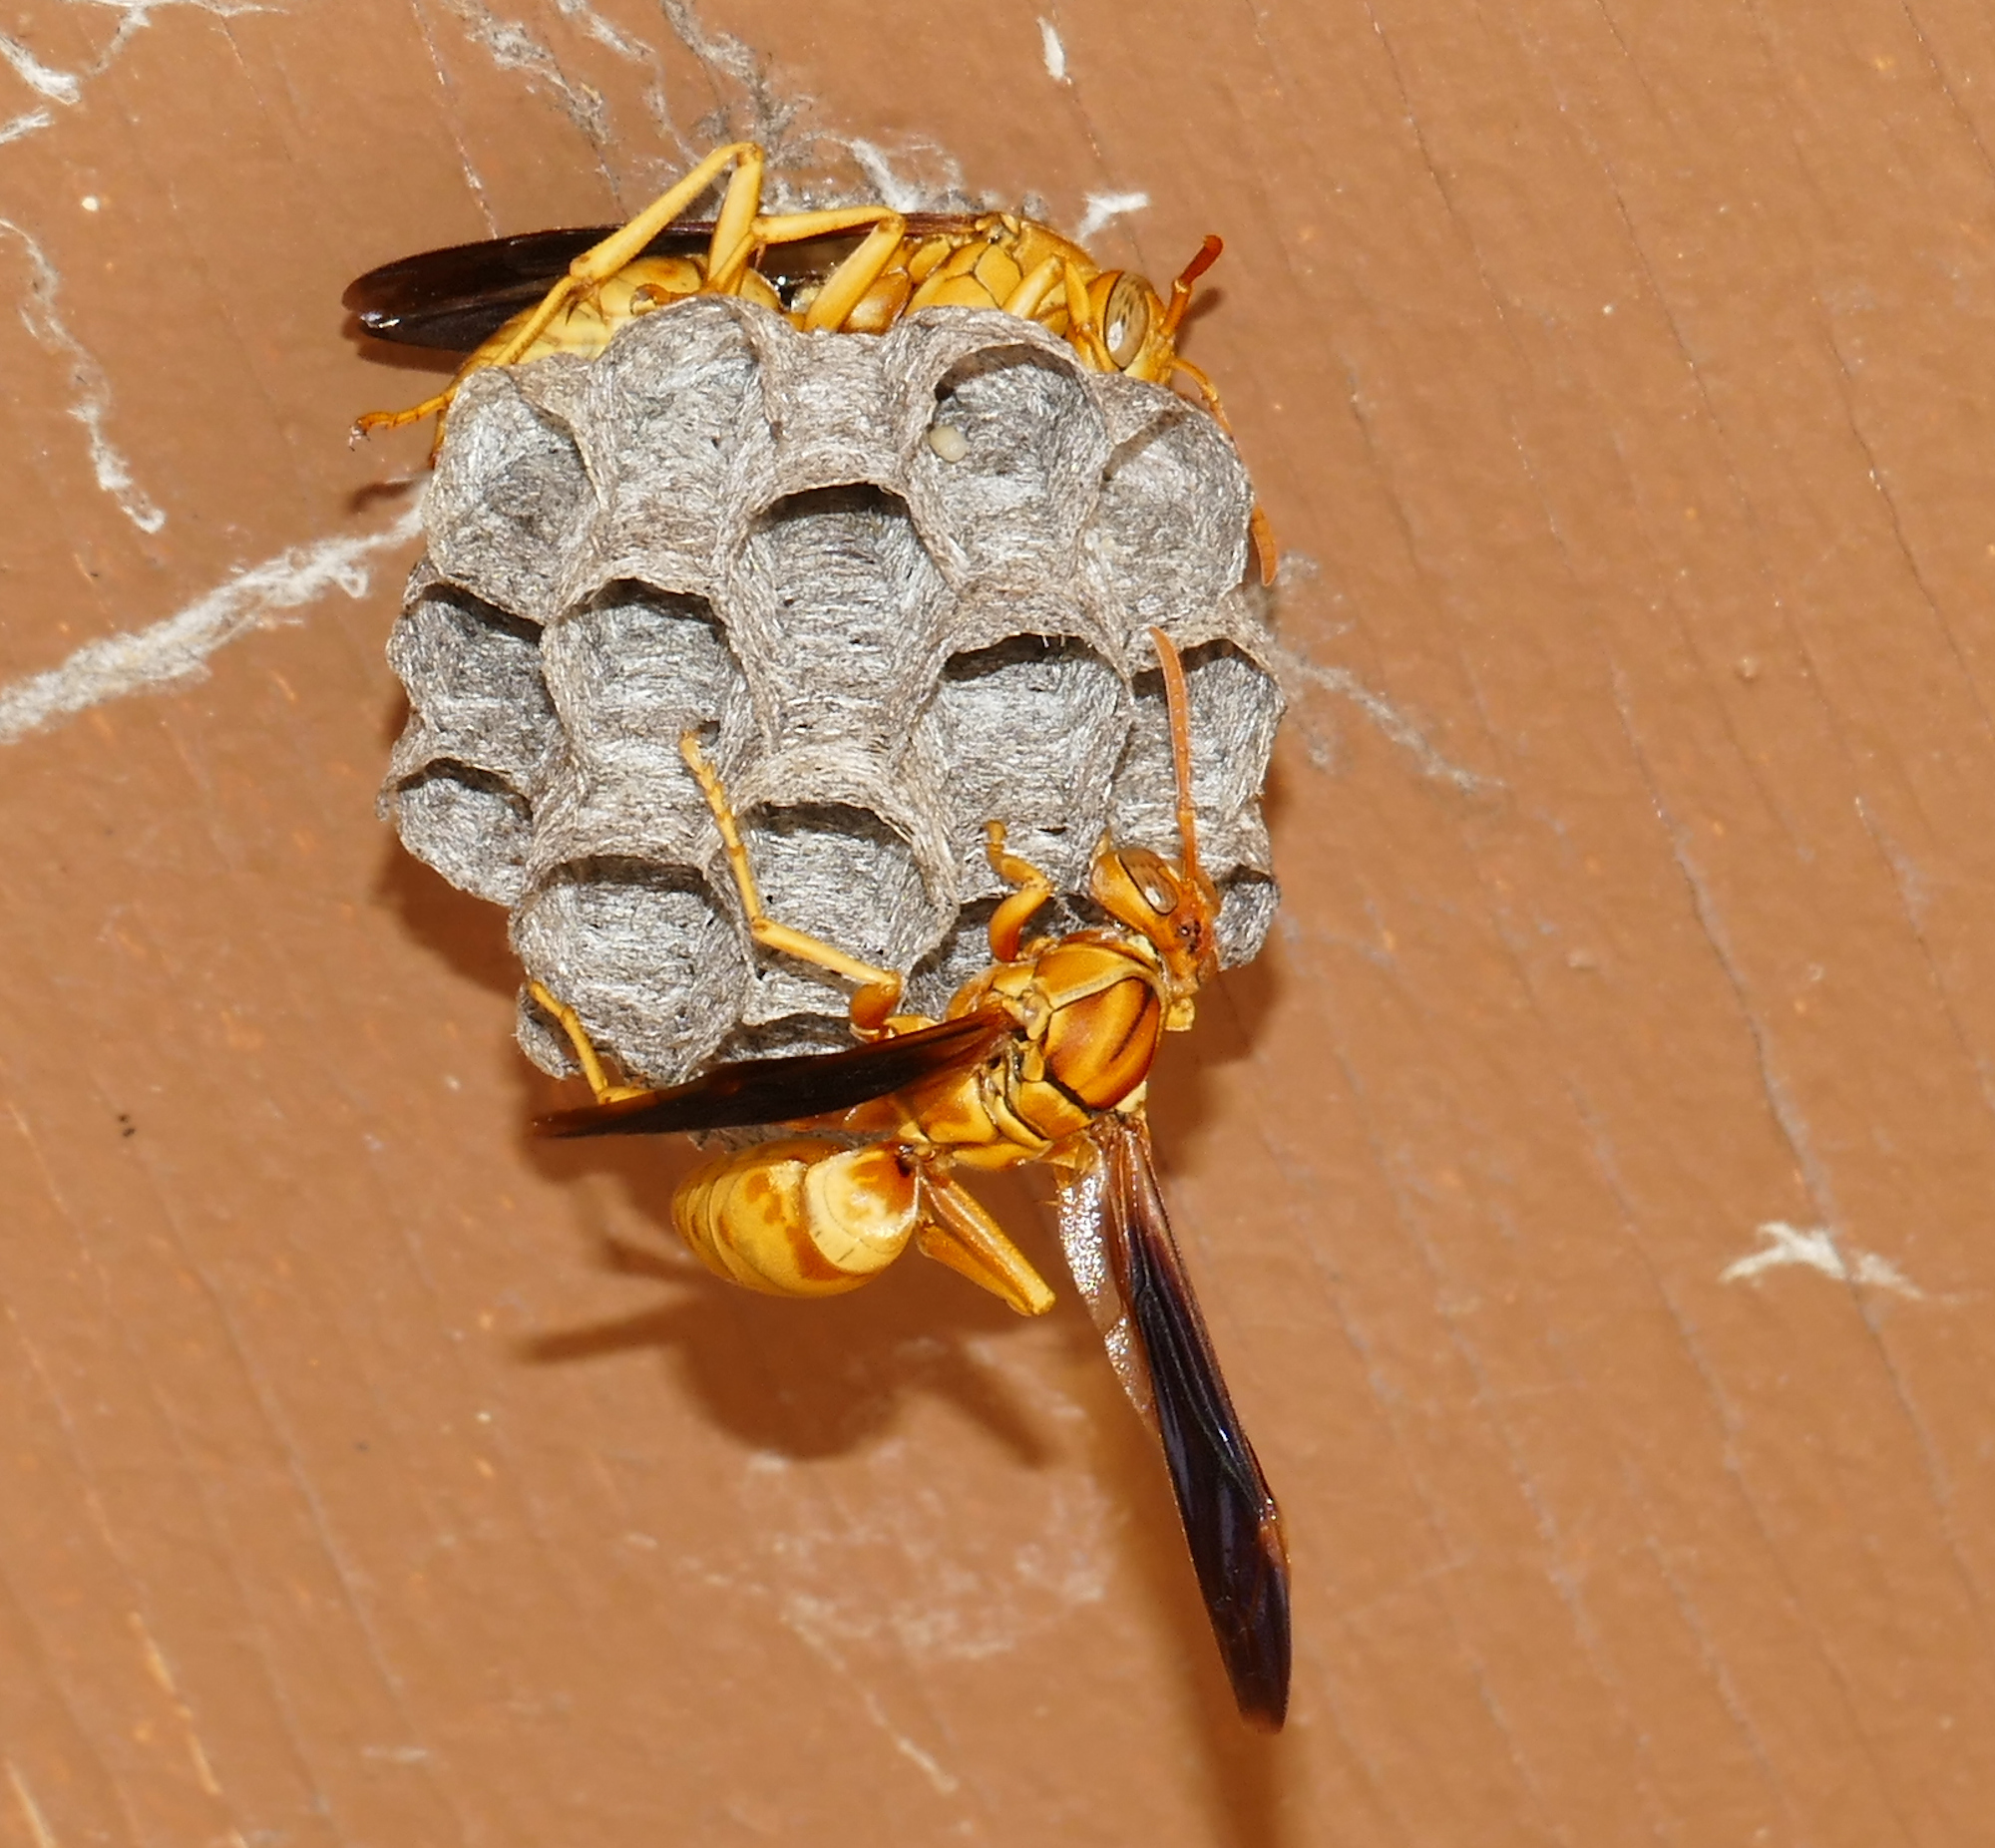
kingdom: Animalia
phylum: Arthropoda
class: Insecta
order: Hymenoptera
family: Eumenidae
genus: Polistes
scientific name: Polistes flavus
